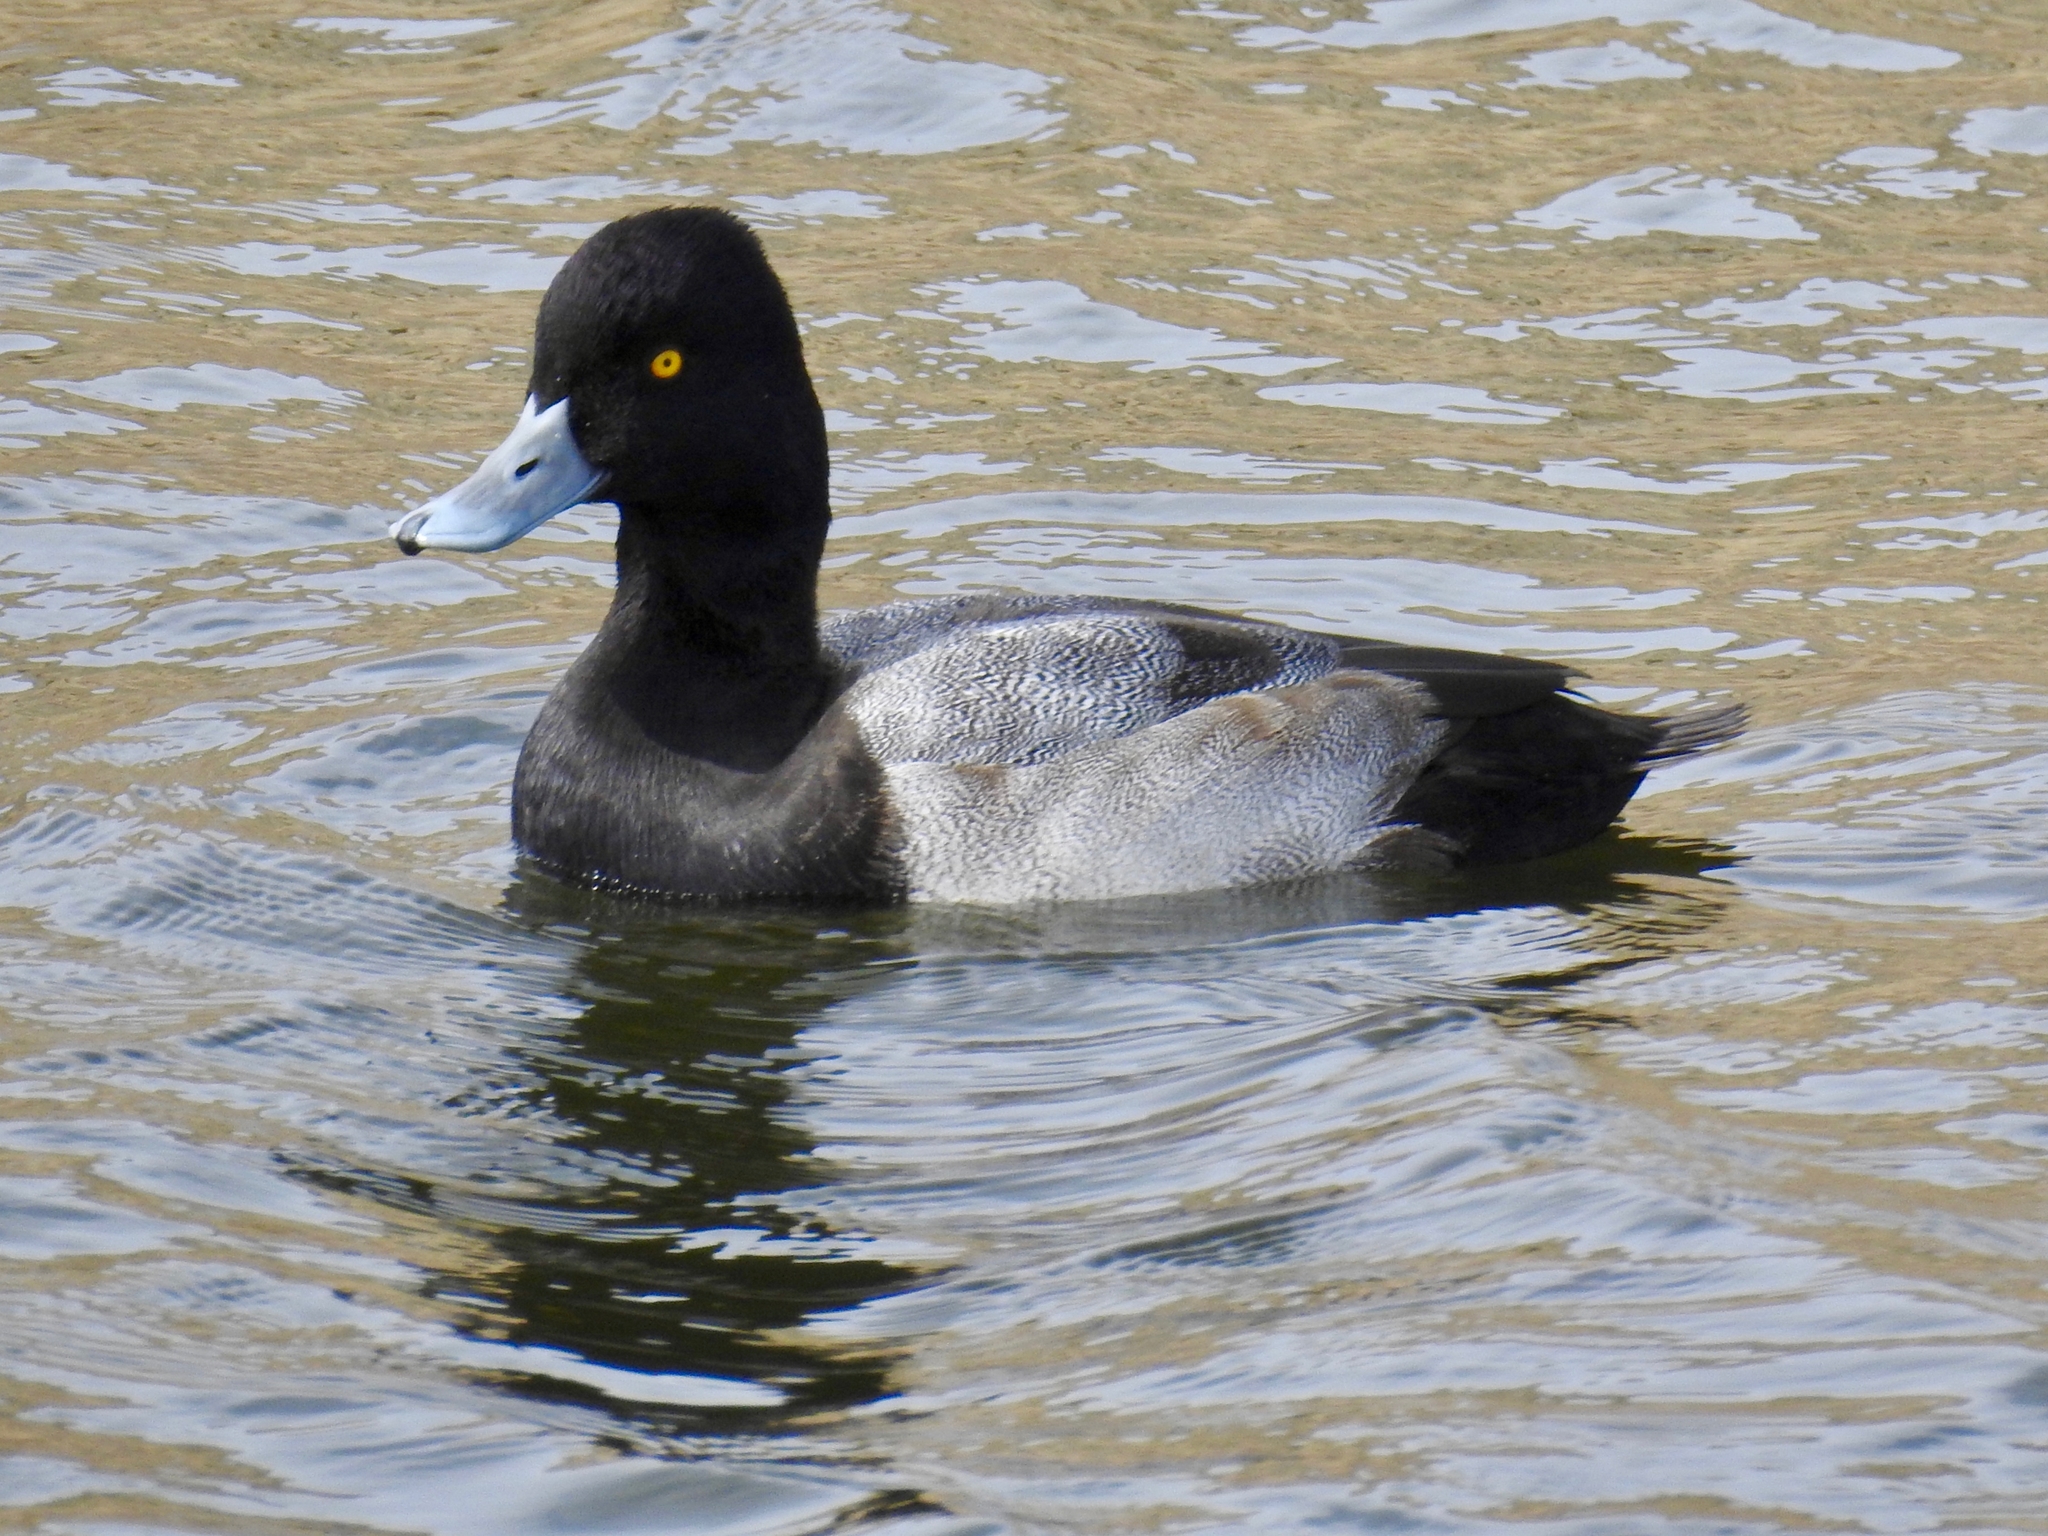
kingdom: Animalia
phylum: Chordata
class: Aves
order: Anseriformes
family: Anatidae
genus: Aythya
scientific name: Aythya affinis
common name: Lesser scaup
